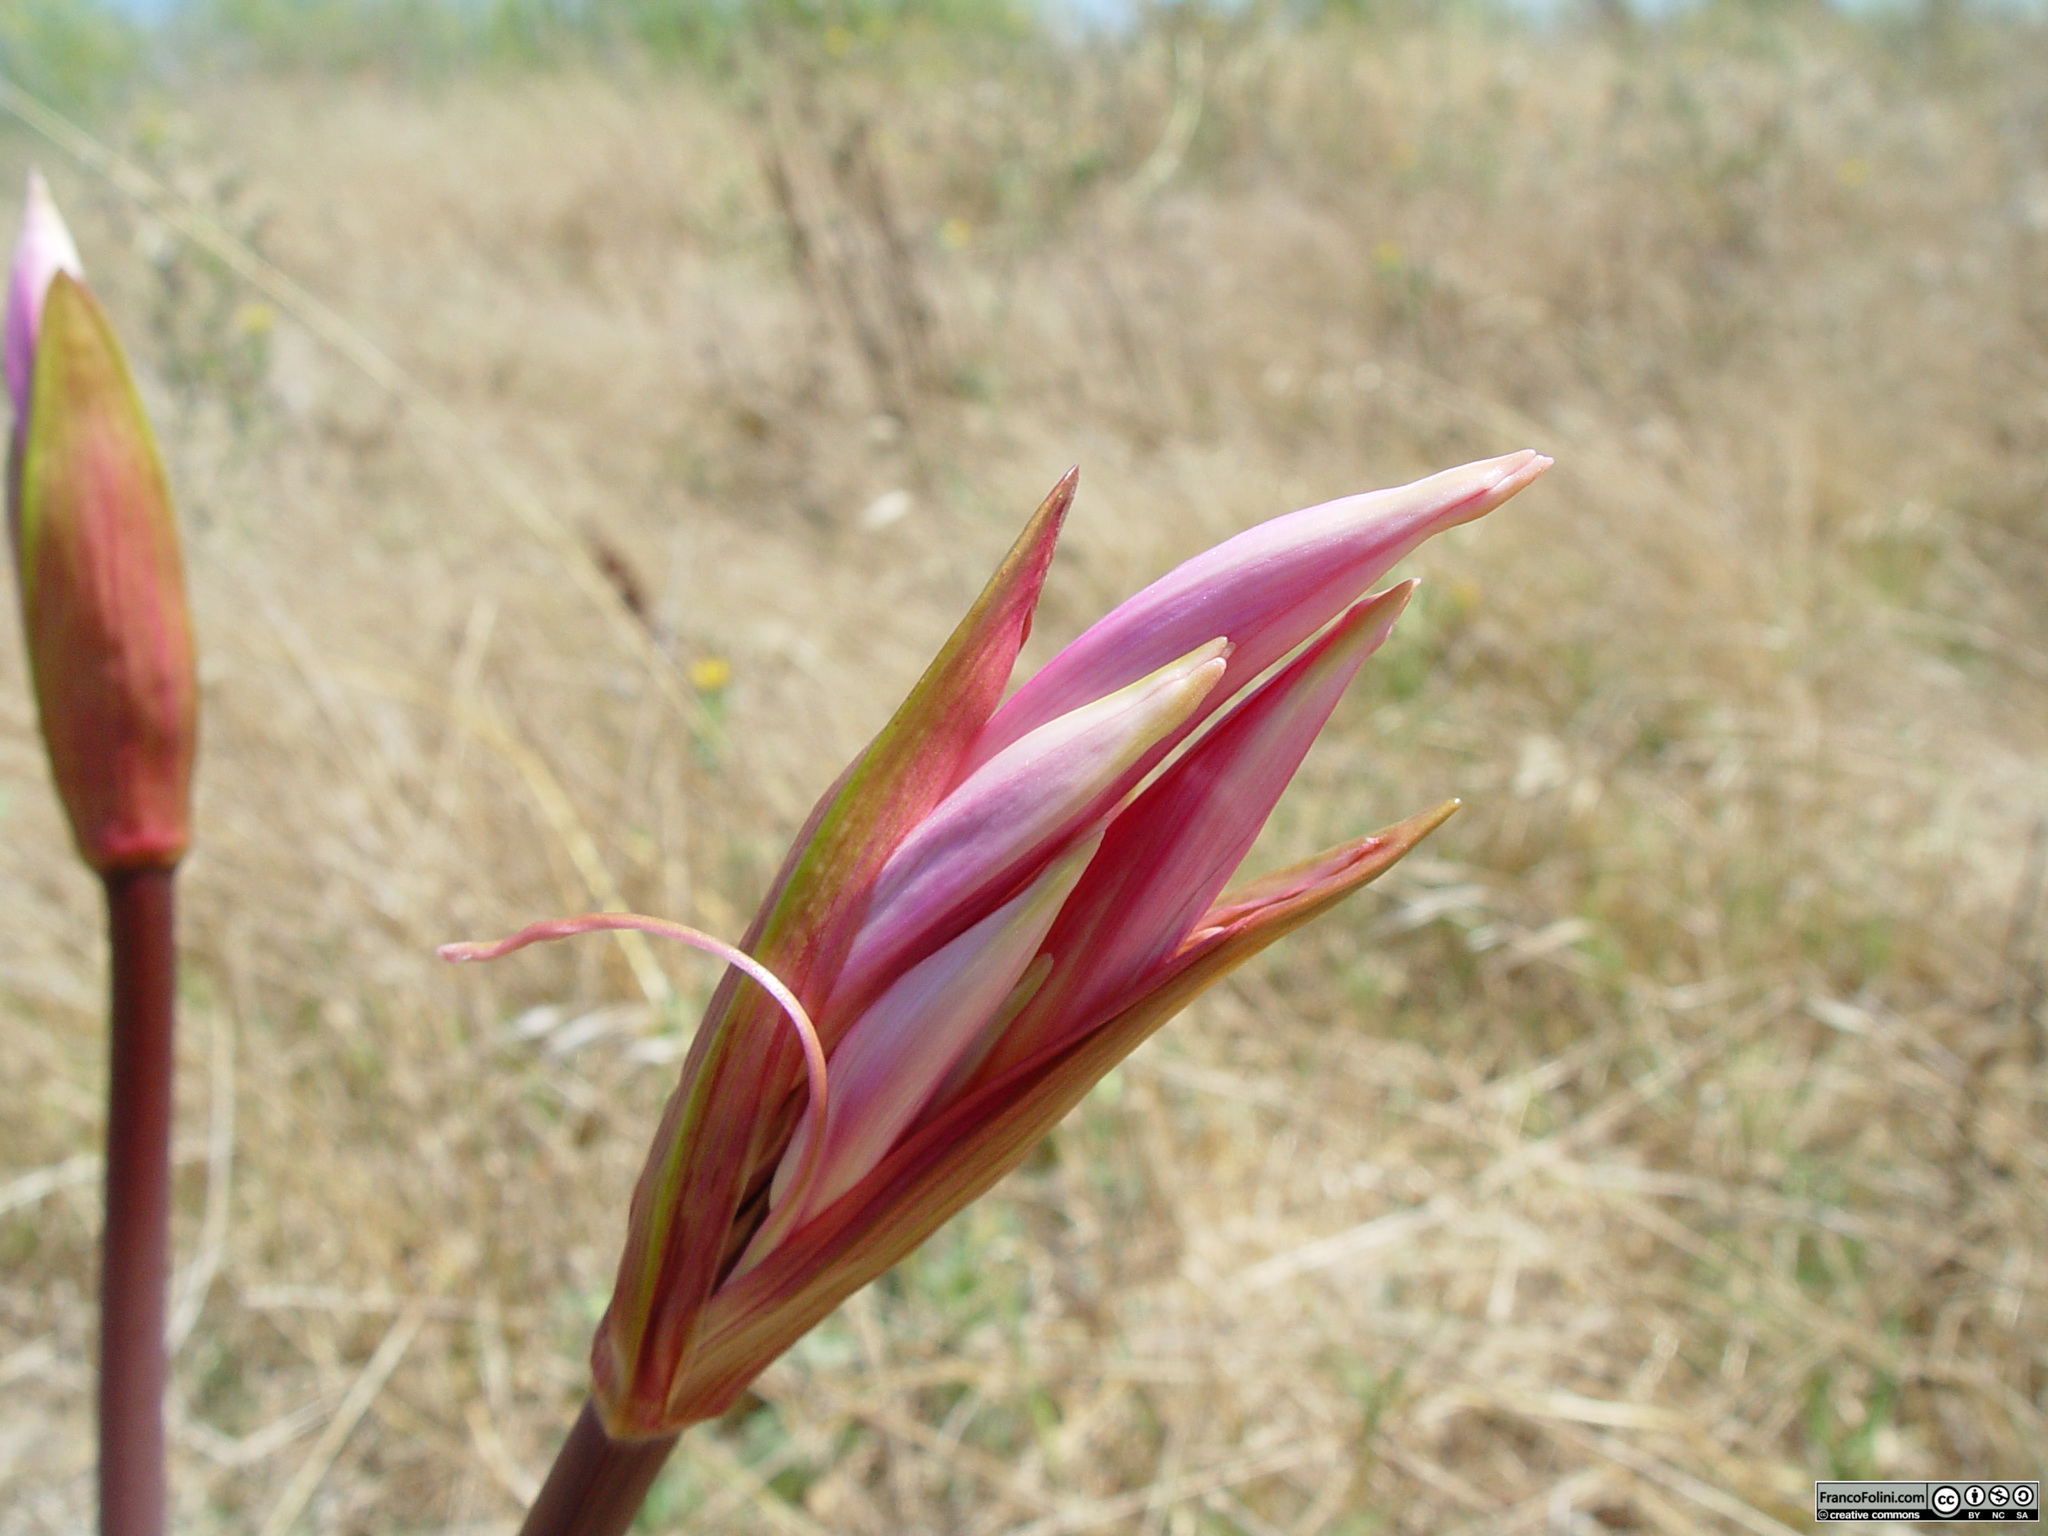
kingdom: Plantae
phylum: Tracheophyta
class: Liliopsida
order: Asparagales
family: Amaryllidaceae
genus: Amaryllis
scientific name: Amaryllis belladonna
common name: Jersey lily
